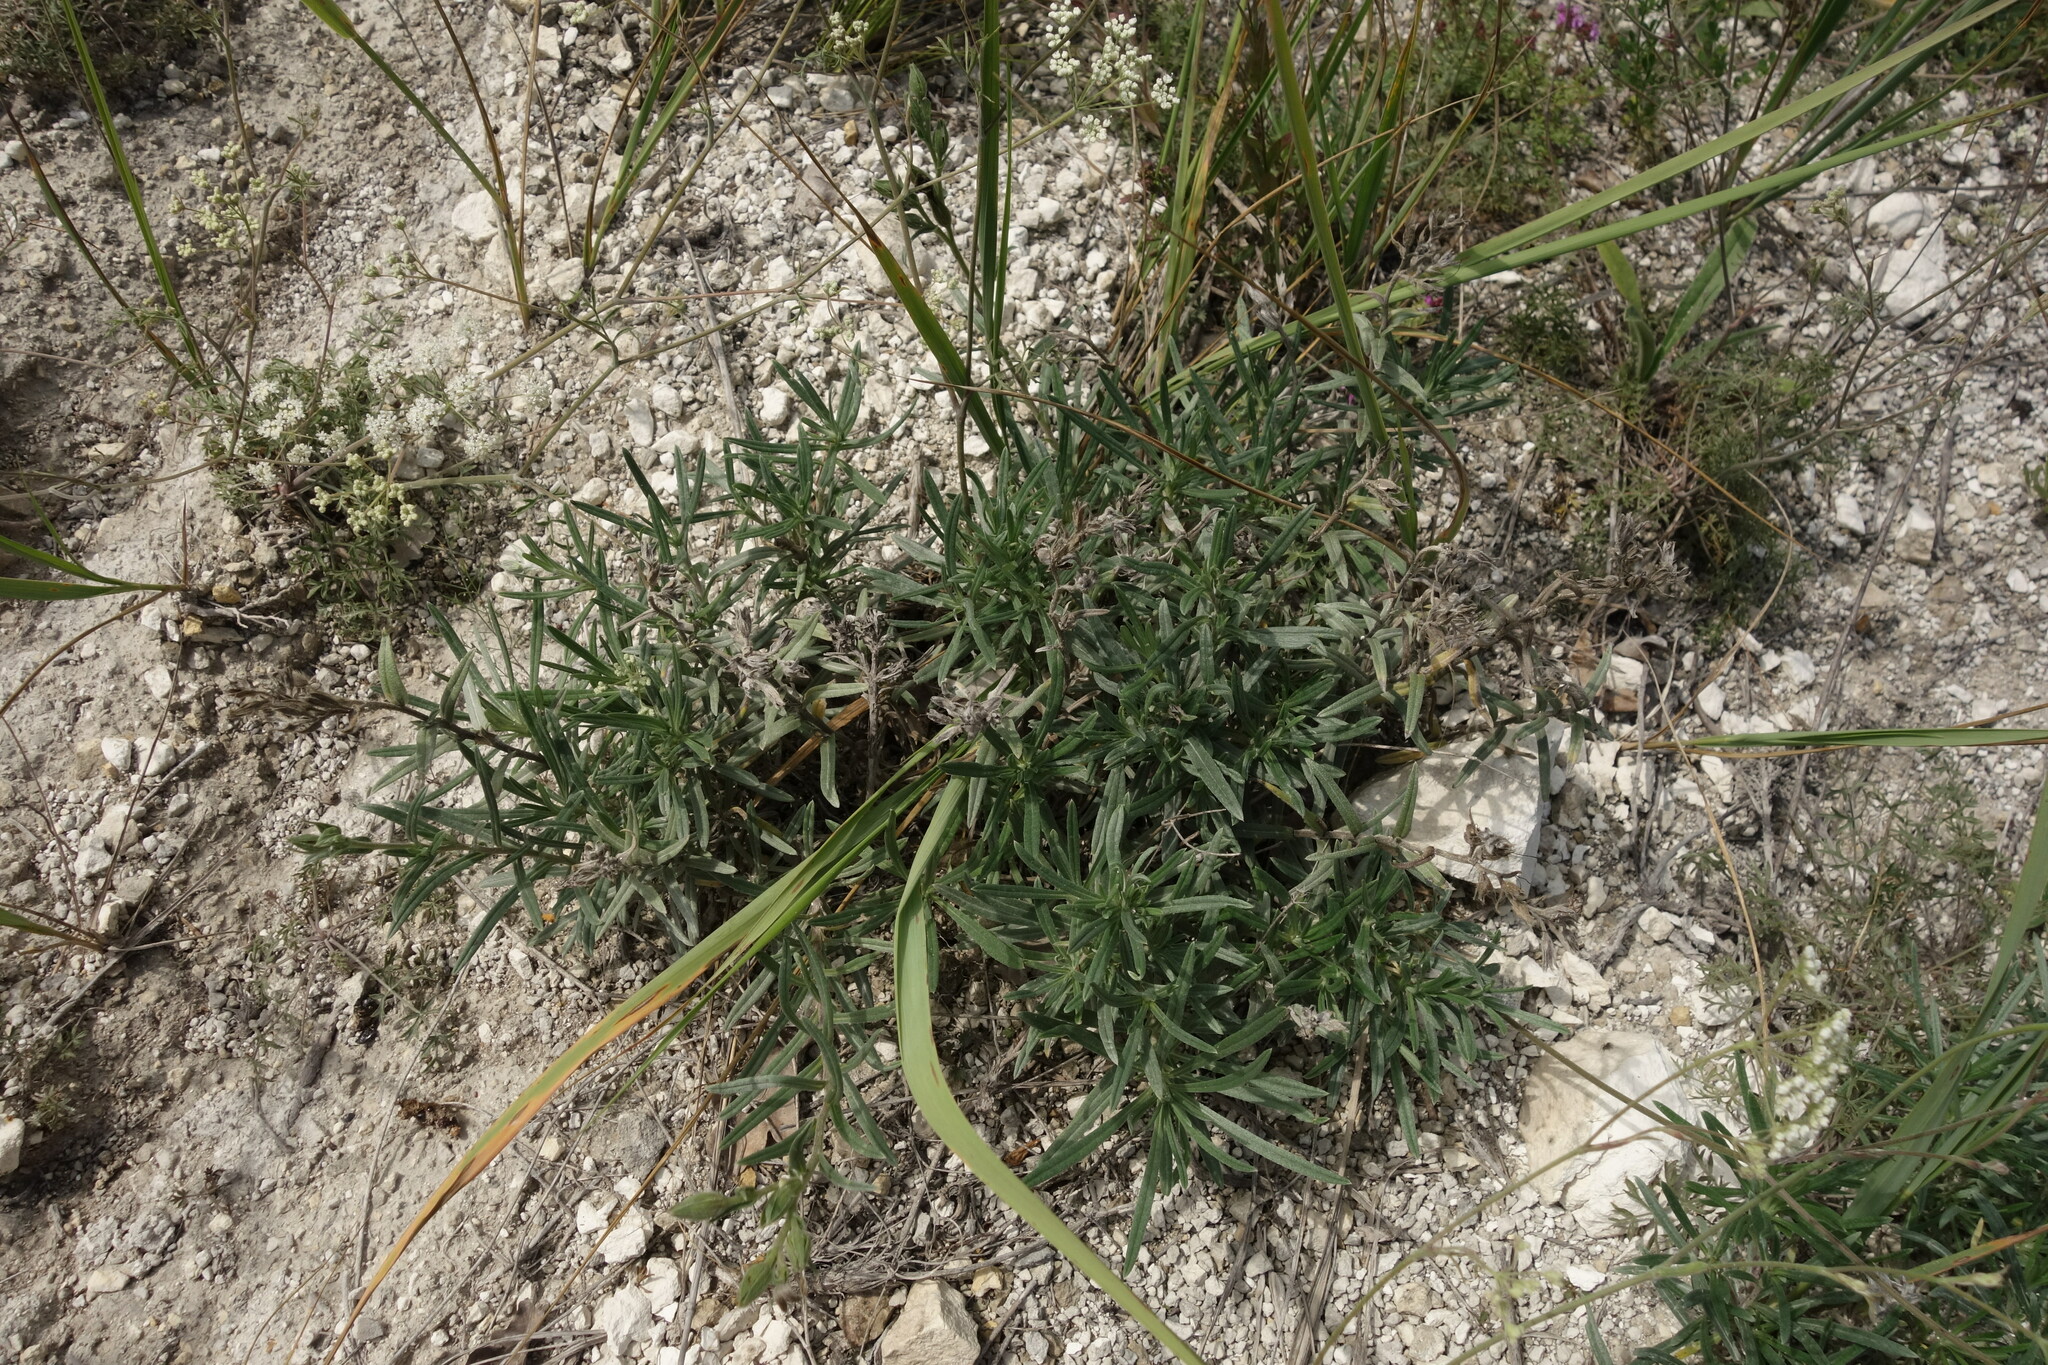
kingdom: Plantae
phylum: Tracheophyta
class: Magnoliopsida
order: Boraginales
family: Boraginaceae
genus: Onosma
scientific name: Onosma simplicissima
